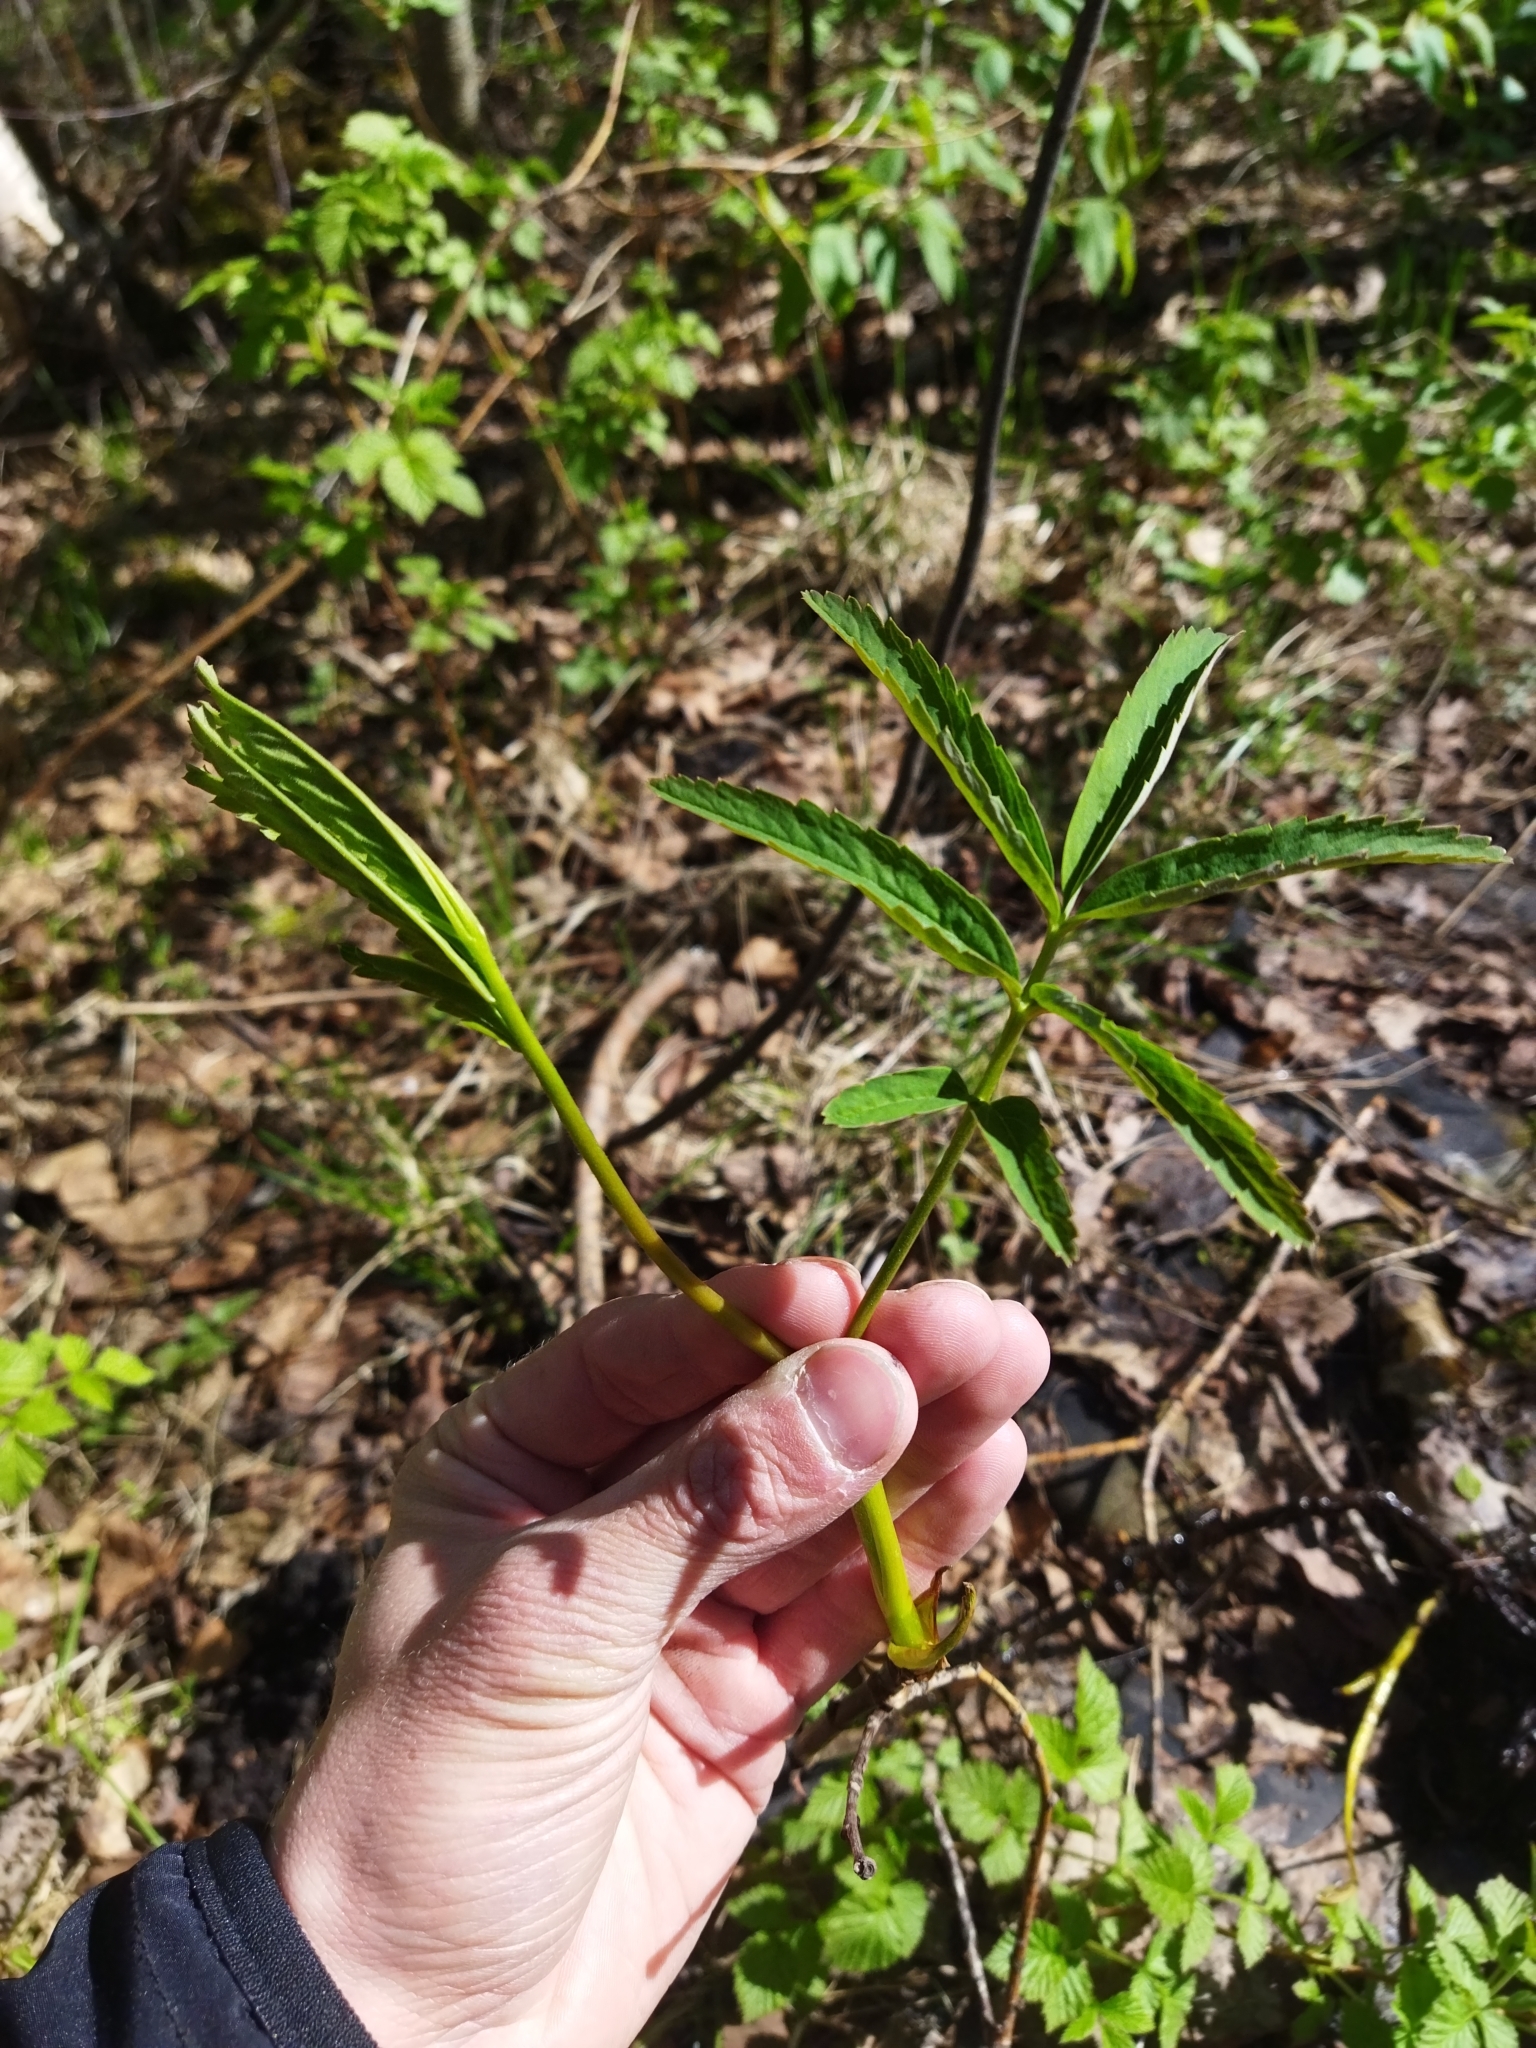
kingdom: Plantae
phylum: Tracheophyta
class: Magnoliopsida
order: Rosales
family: Rosaceae
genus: Comarum
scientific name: Comarum palustre
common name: Marsh cinquefoil
